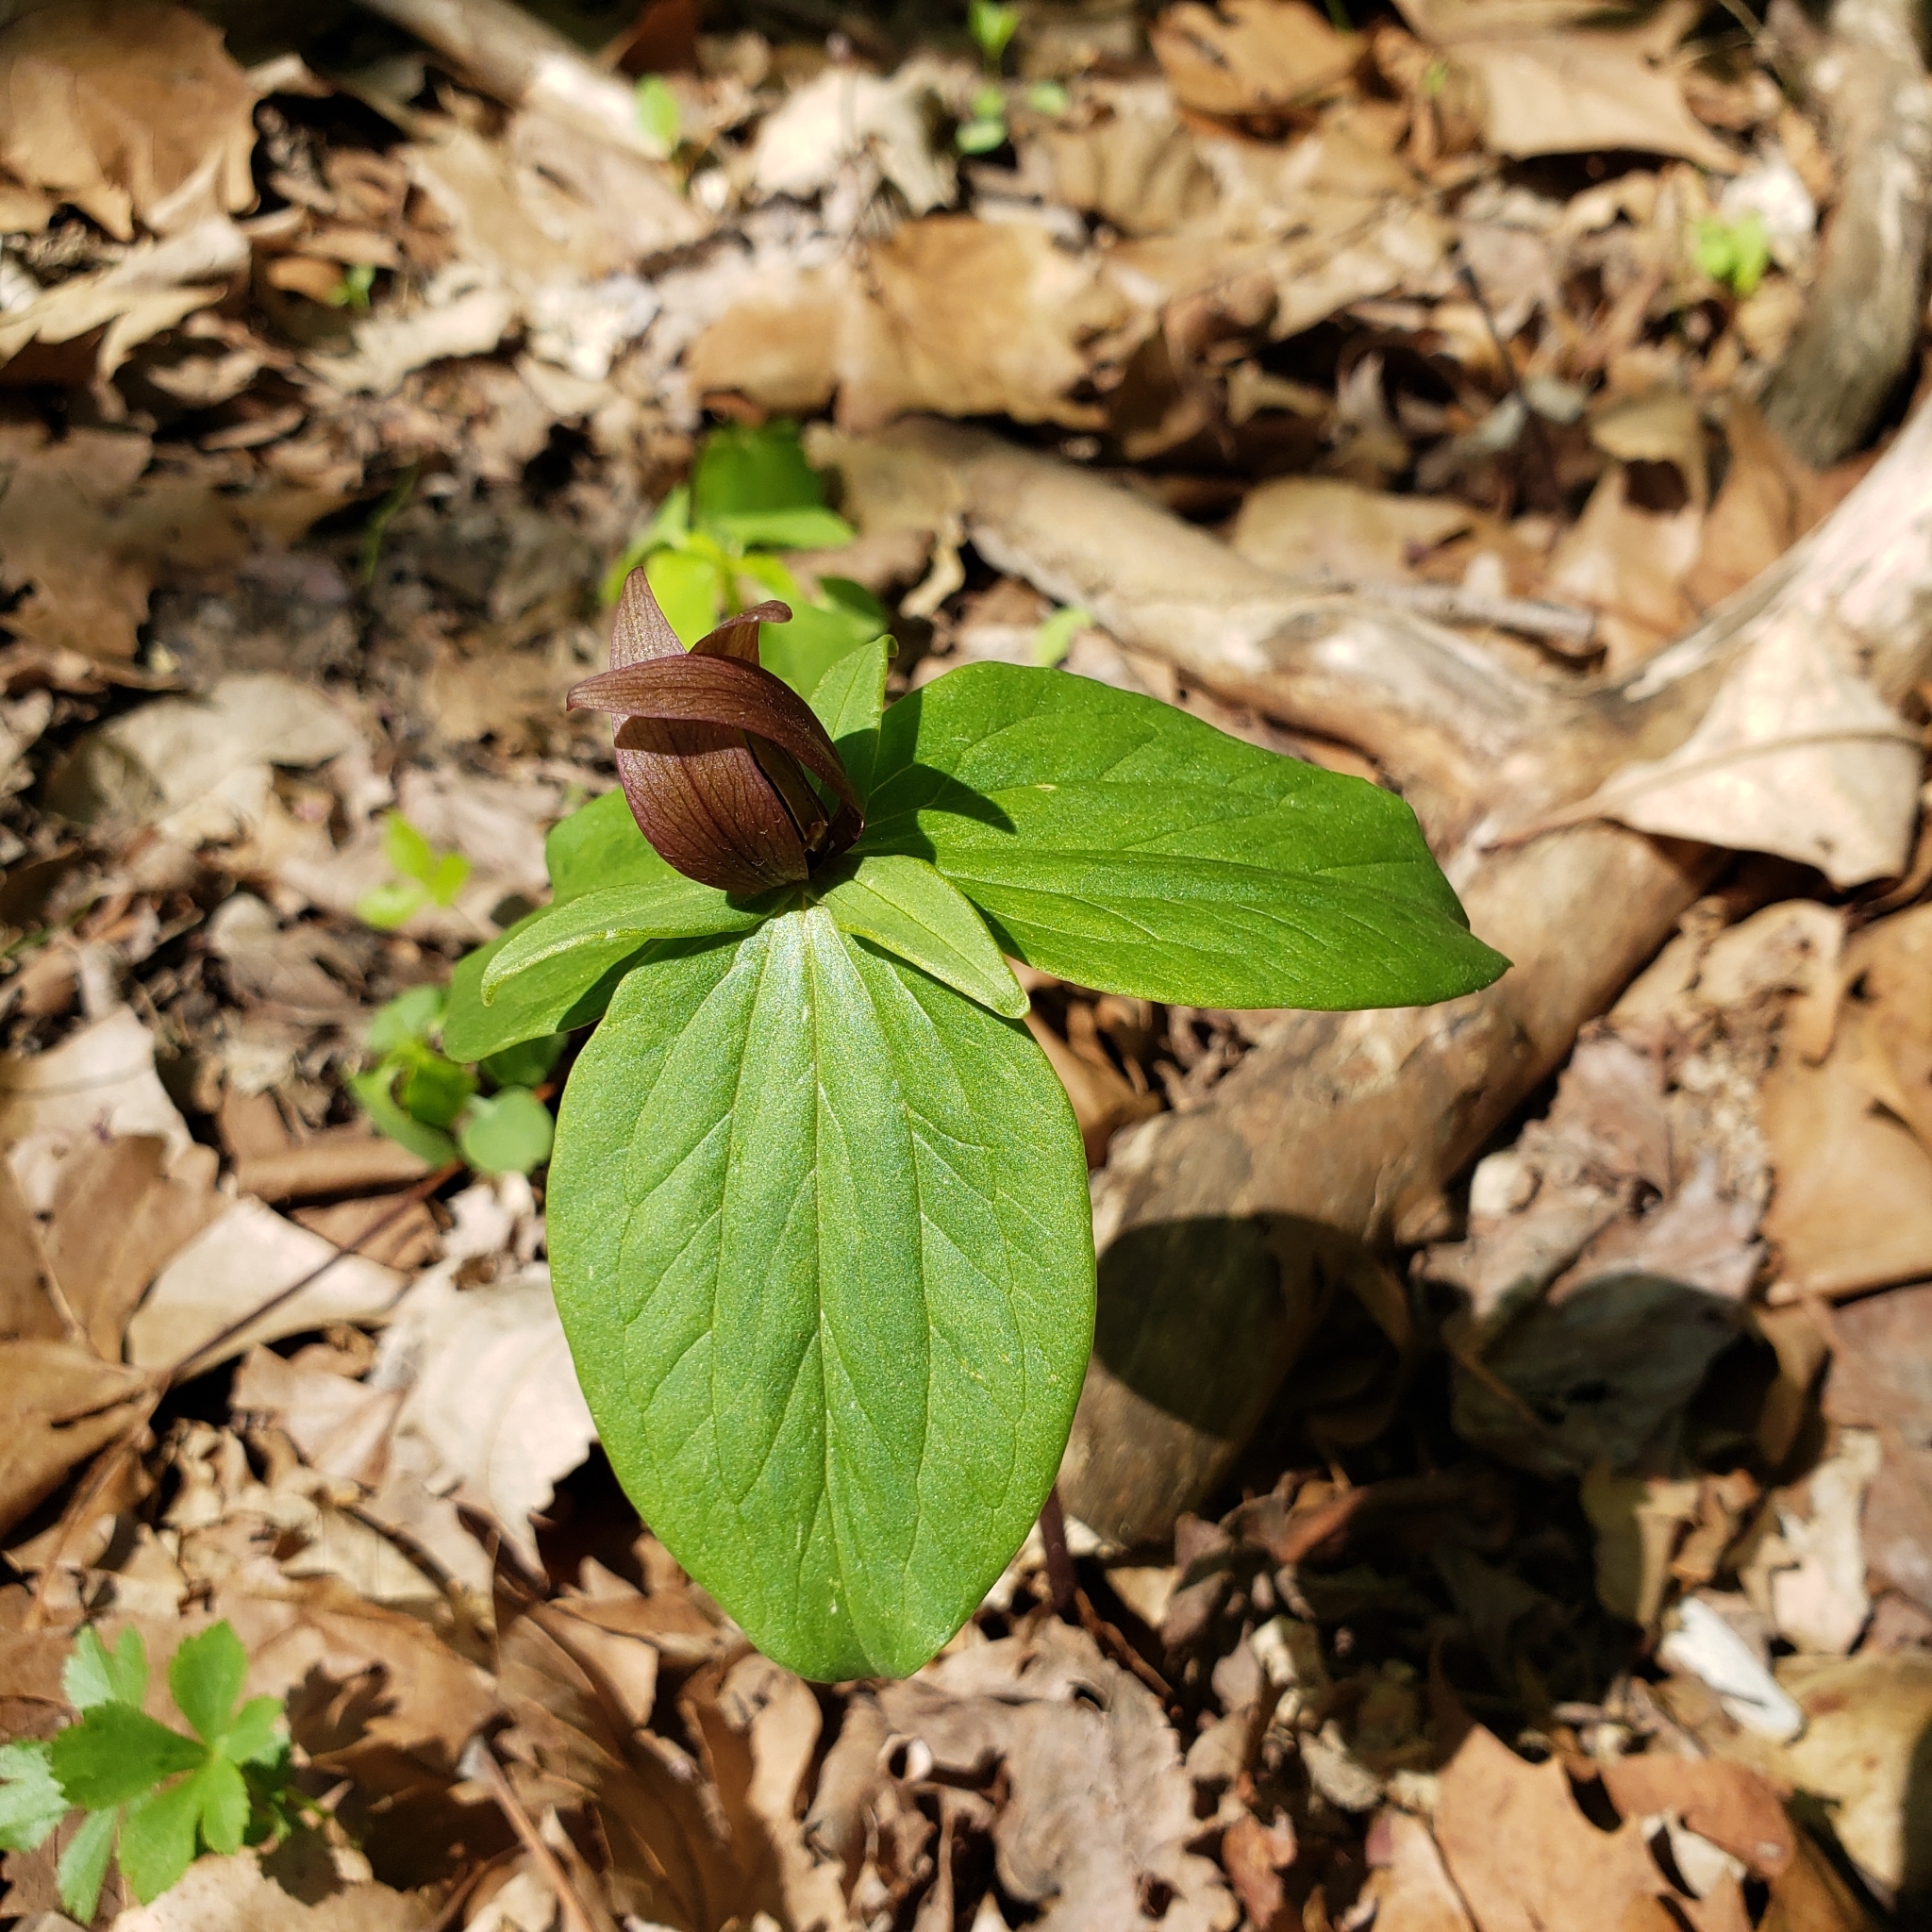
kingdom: Plantae
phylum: Tracheophyta
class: Liliopsida
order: Liliales
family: Melanthiaceae
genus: Trillium
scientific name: Trillium sessile
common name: Sessile trillium
